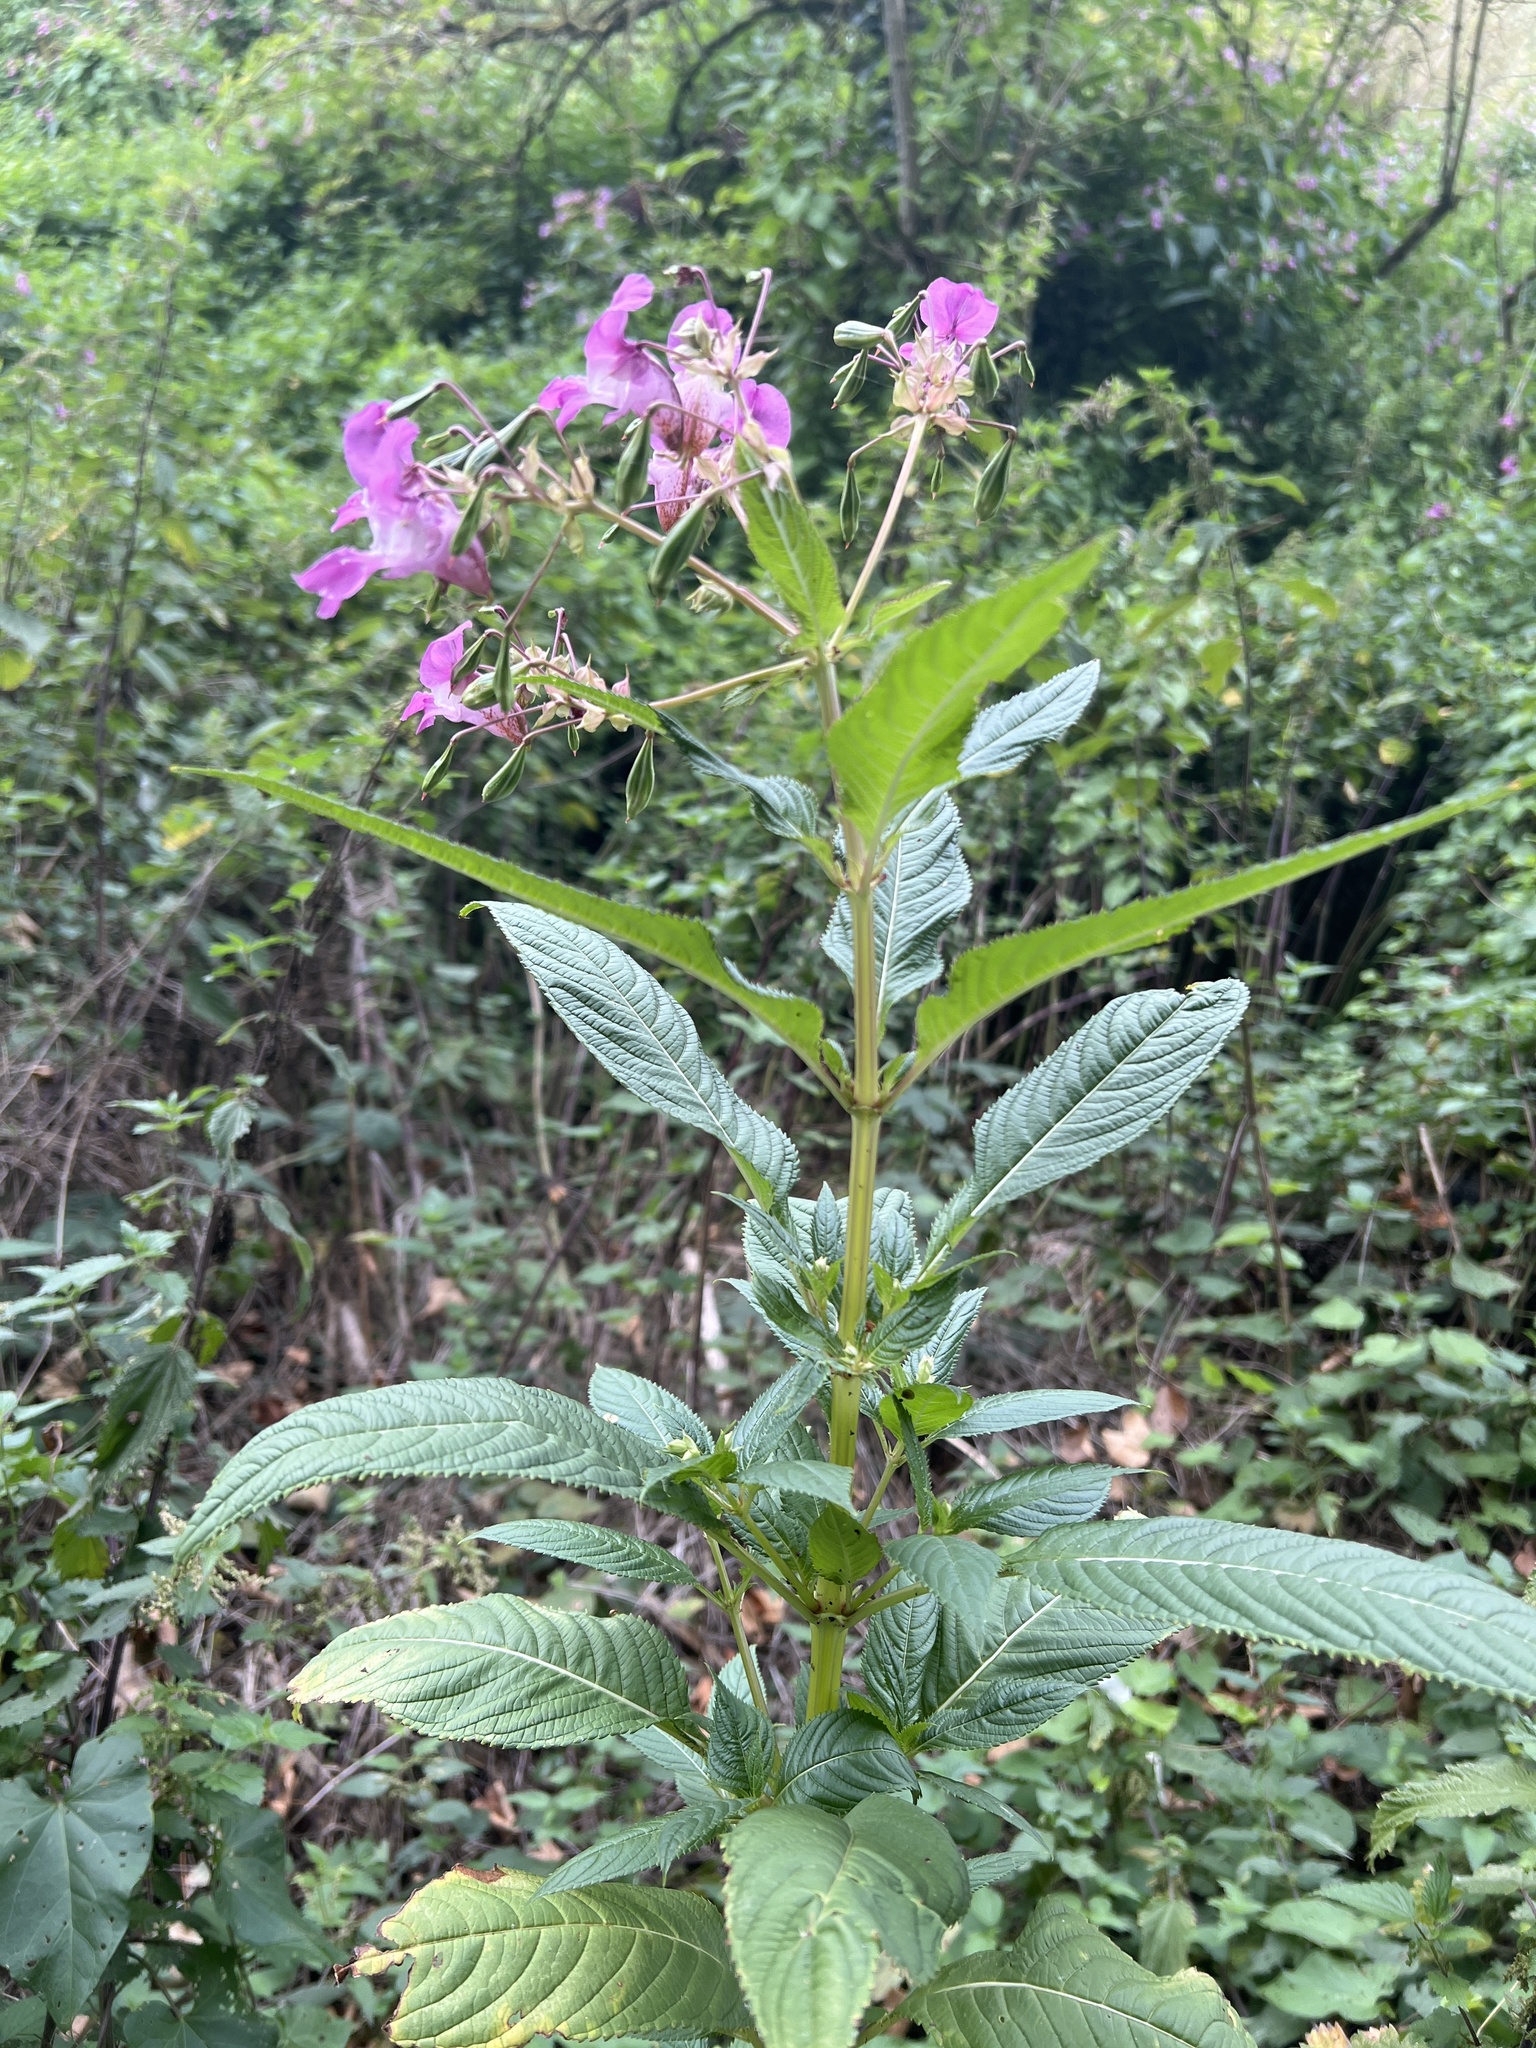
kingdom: Plantae
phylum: Tracheophyta
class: Magnoliopsida
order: Ericales
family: Balsaminaceae
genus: Impatiens
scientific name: Impatiens glandulifera
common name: Himalayan balsam
